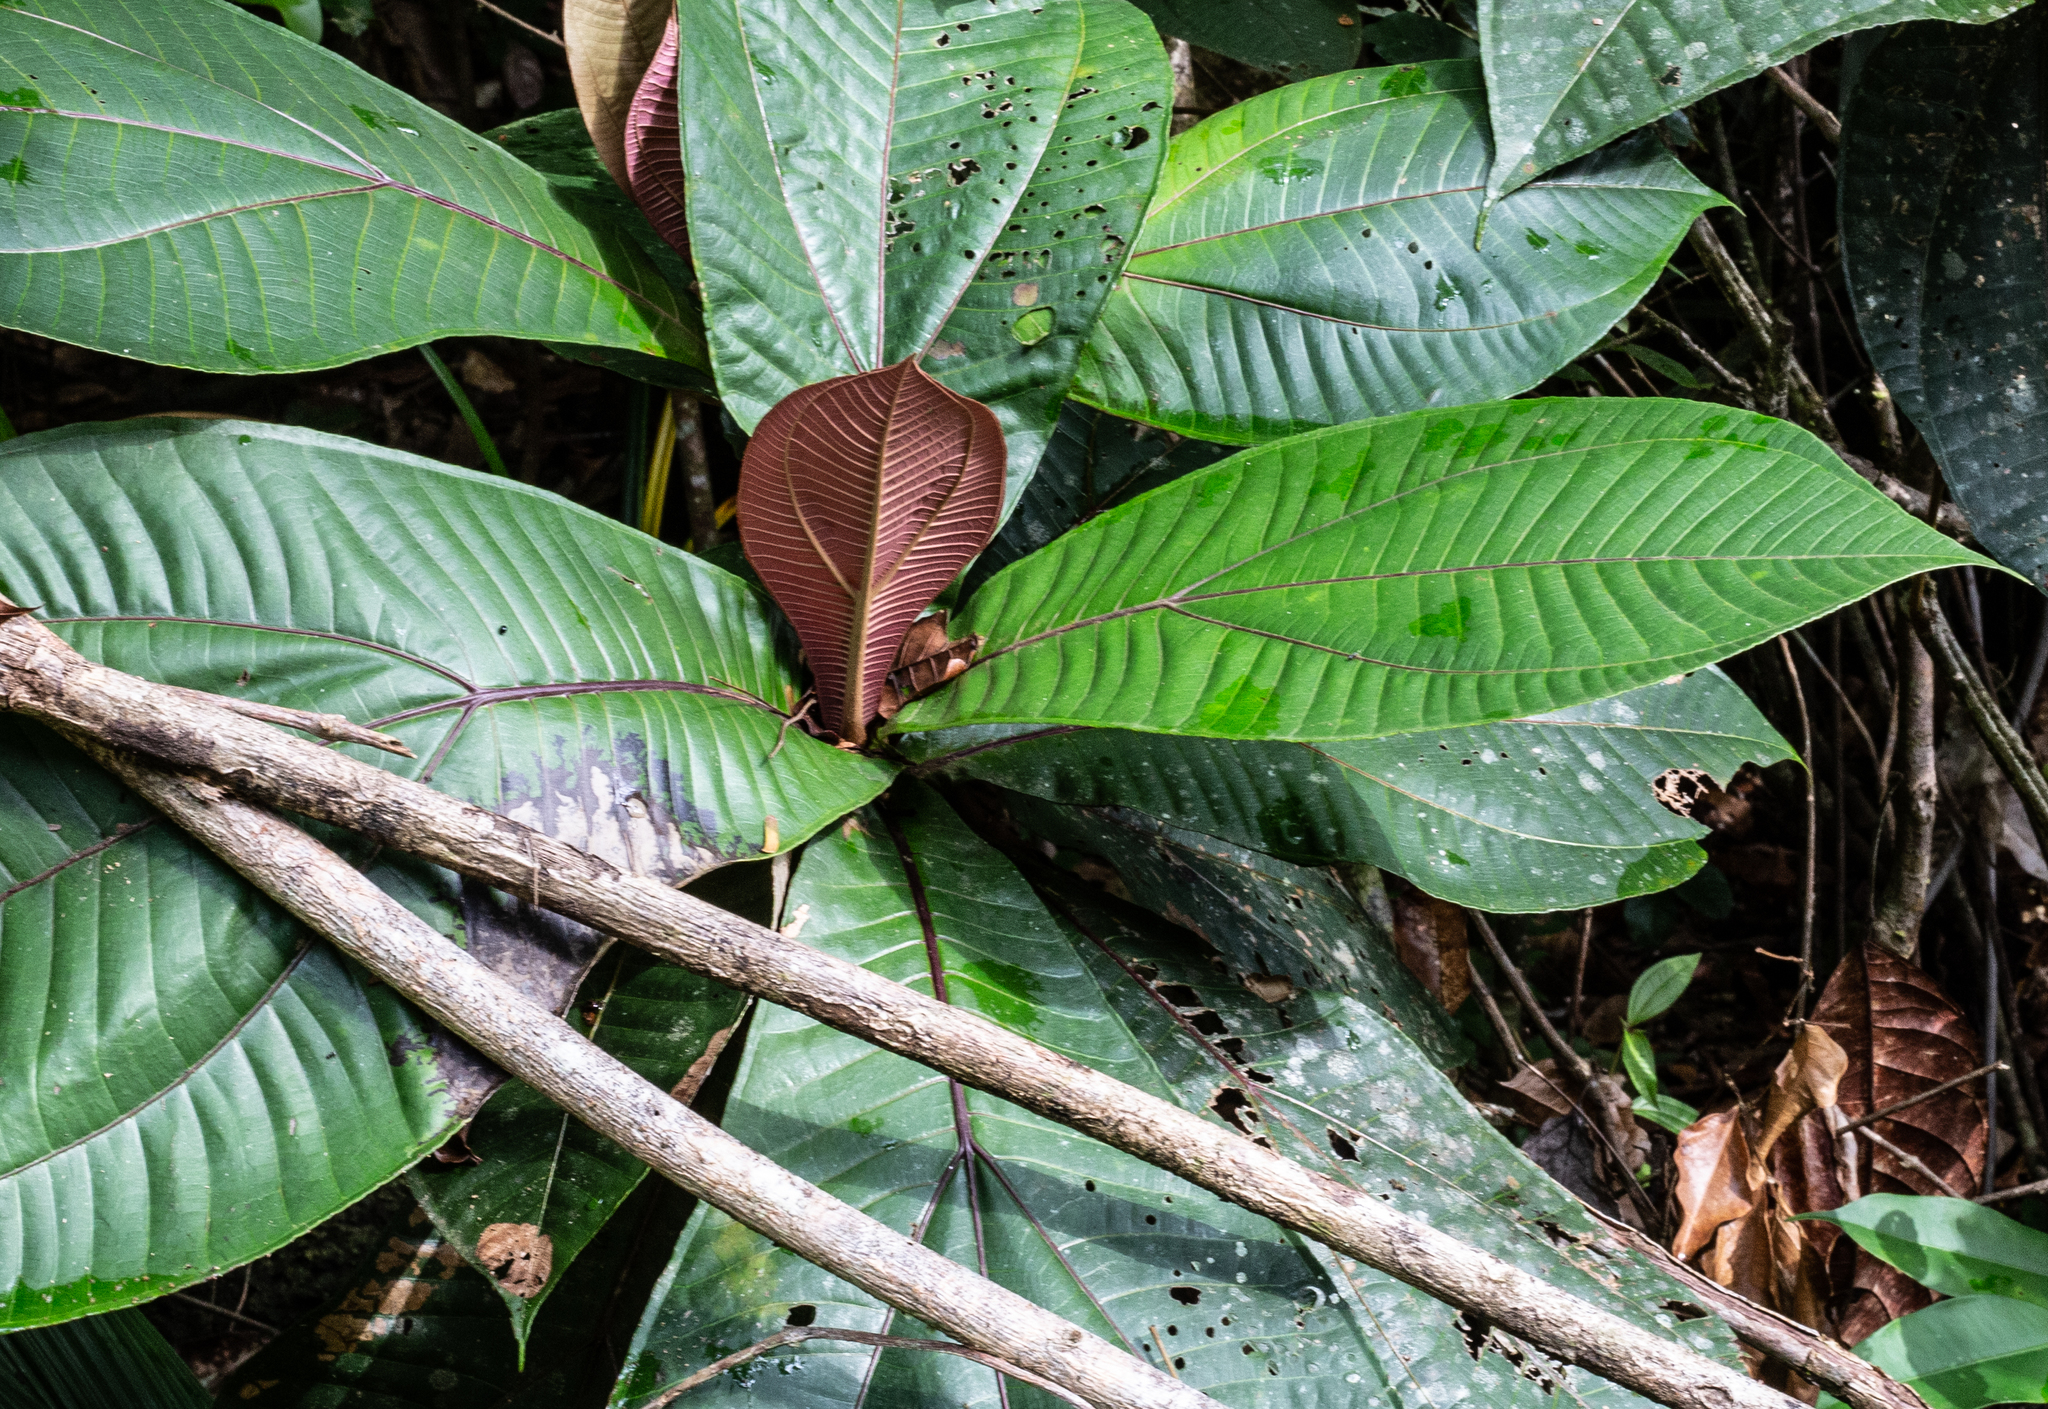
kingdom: Plantae
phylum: Tracheophyta
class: Magnoliopsida
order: Myrtales
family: Melastomataceae
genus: Miconia
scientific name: Miconia plukenetii
